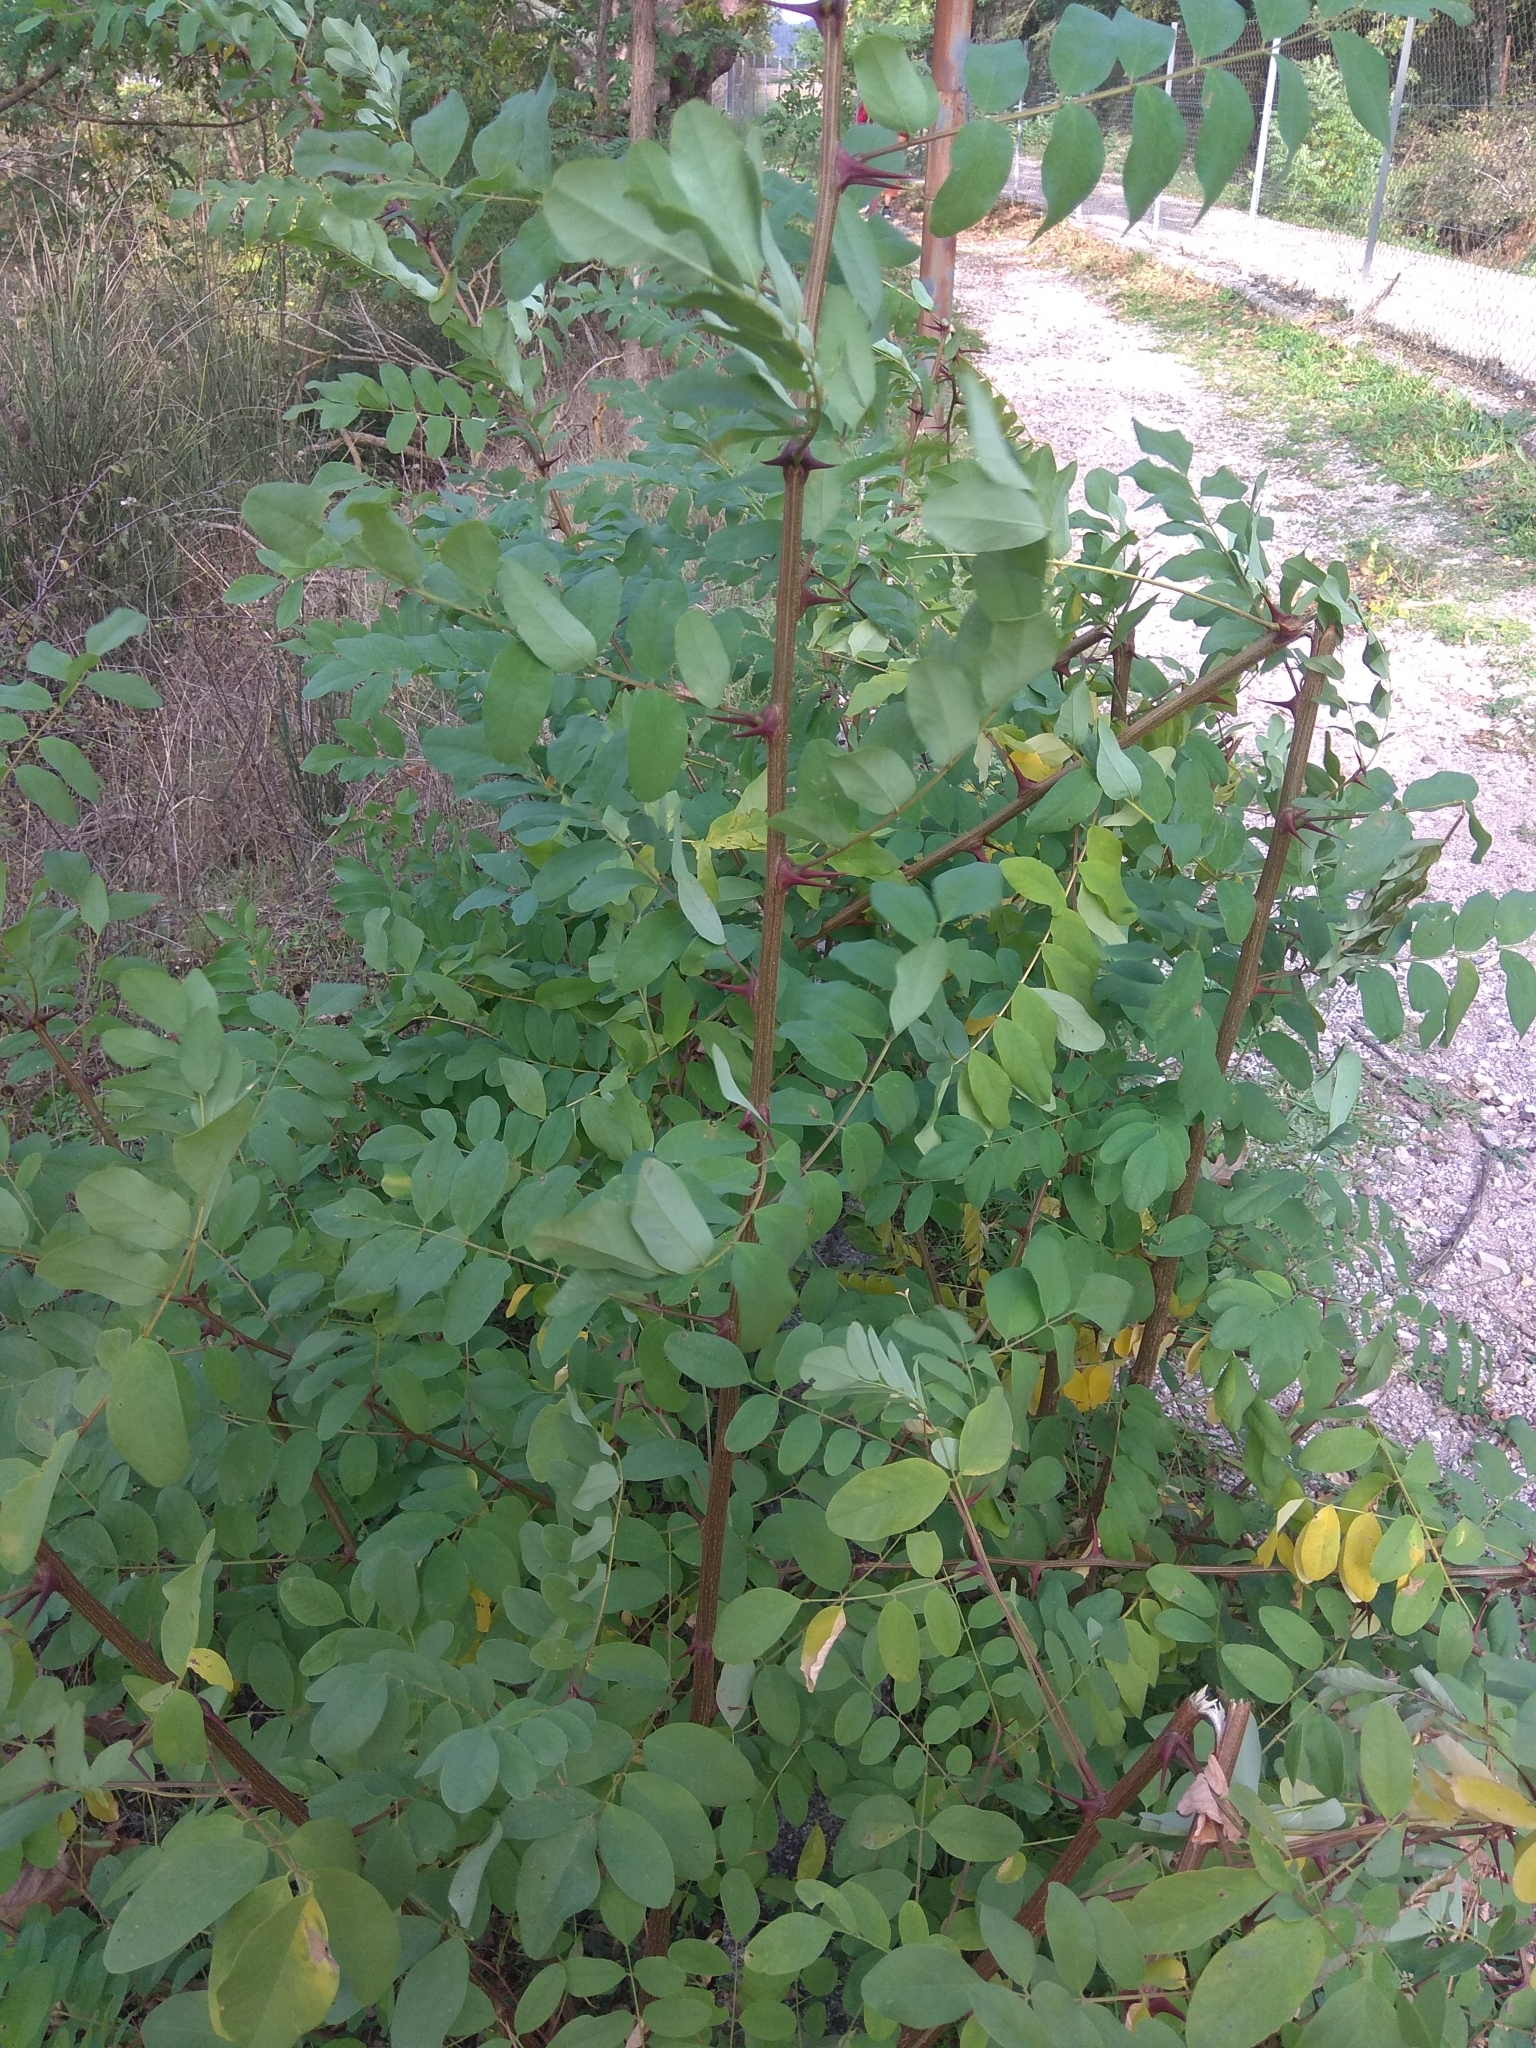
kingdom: Plantae
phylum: Tracheophyta
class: Magnoliopsida
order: Fabales
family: Fabaceae
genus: Robinia
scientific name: Robinia pseudoacacia
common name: Black locust
